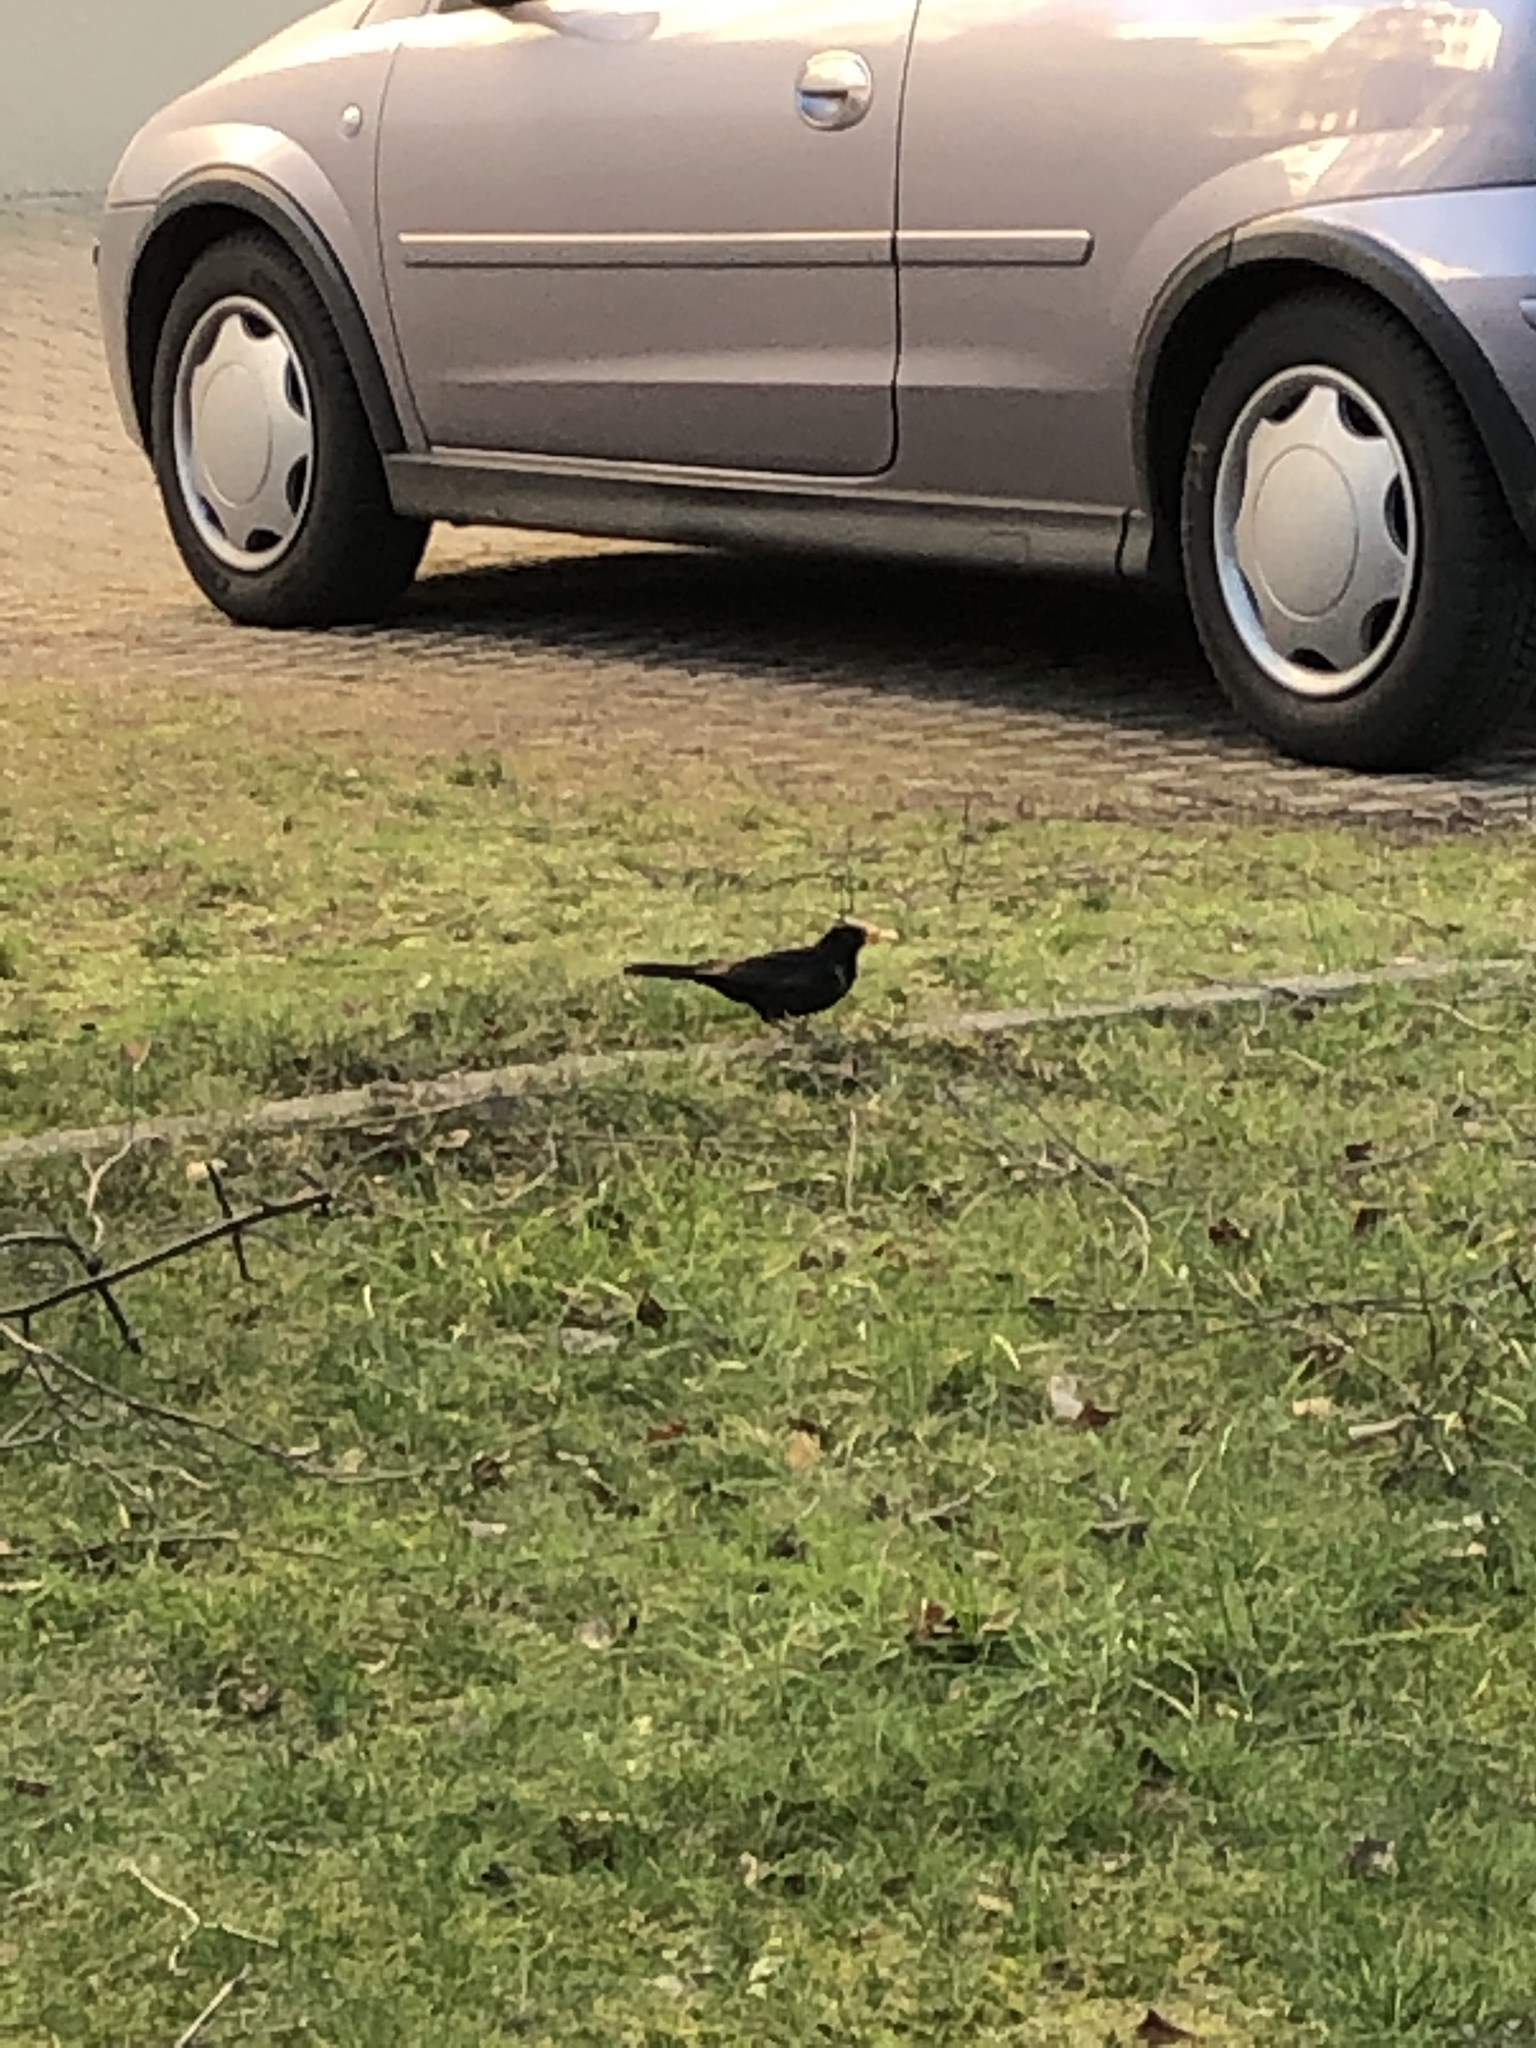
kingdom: Animalia
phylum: Chordata
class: Aves
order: Passeriformes
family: Turdidae
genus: Turdus
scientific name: Turdus merula
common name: Common blackbird
